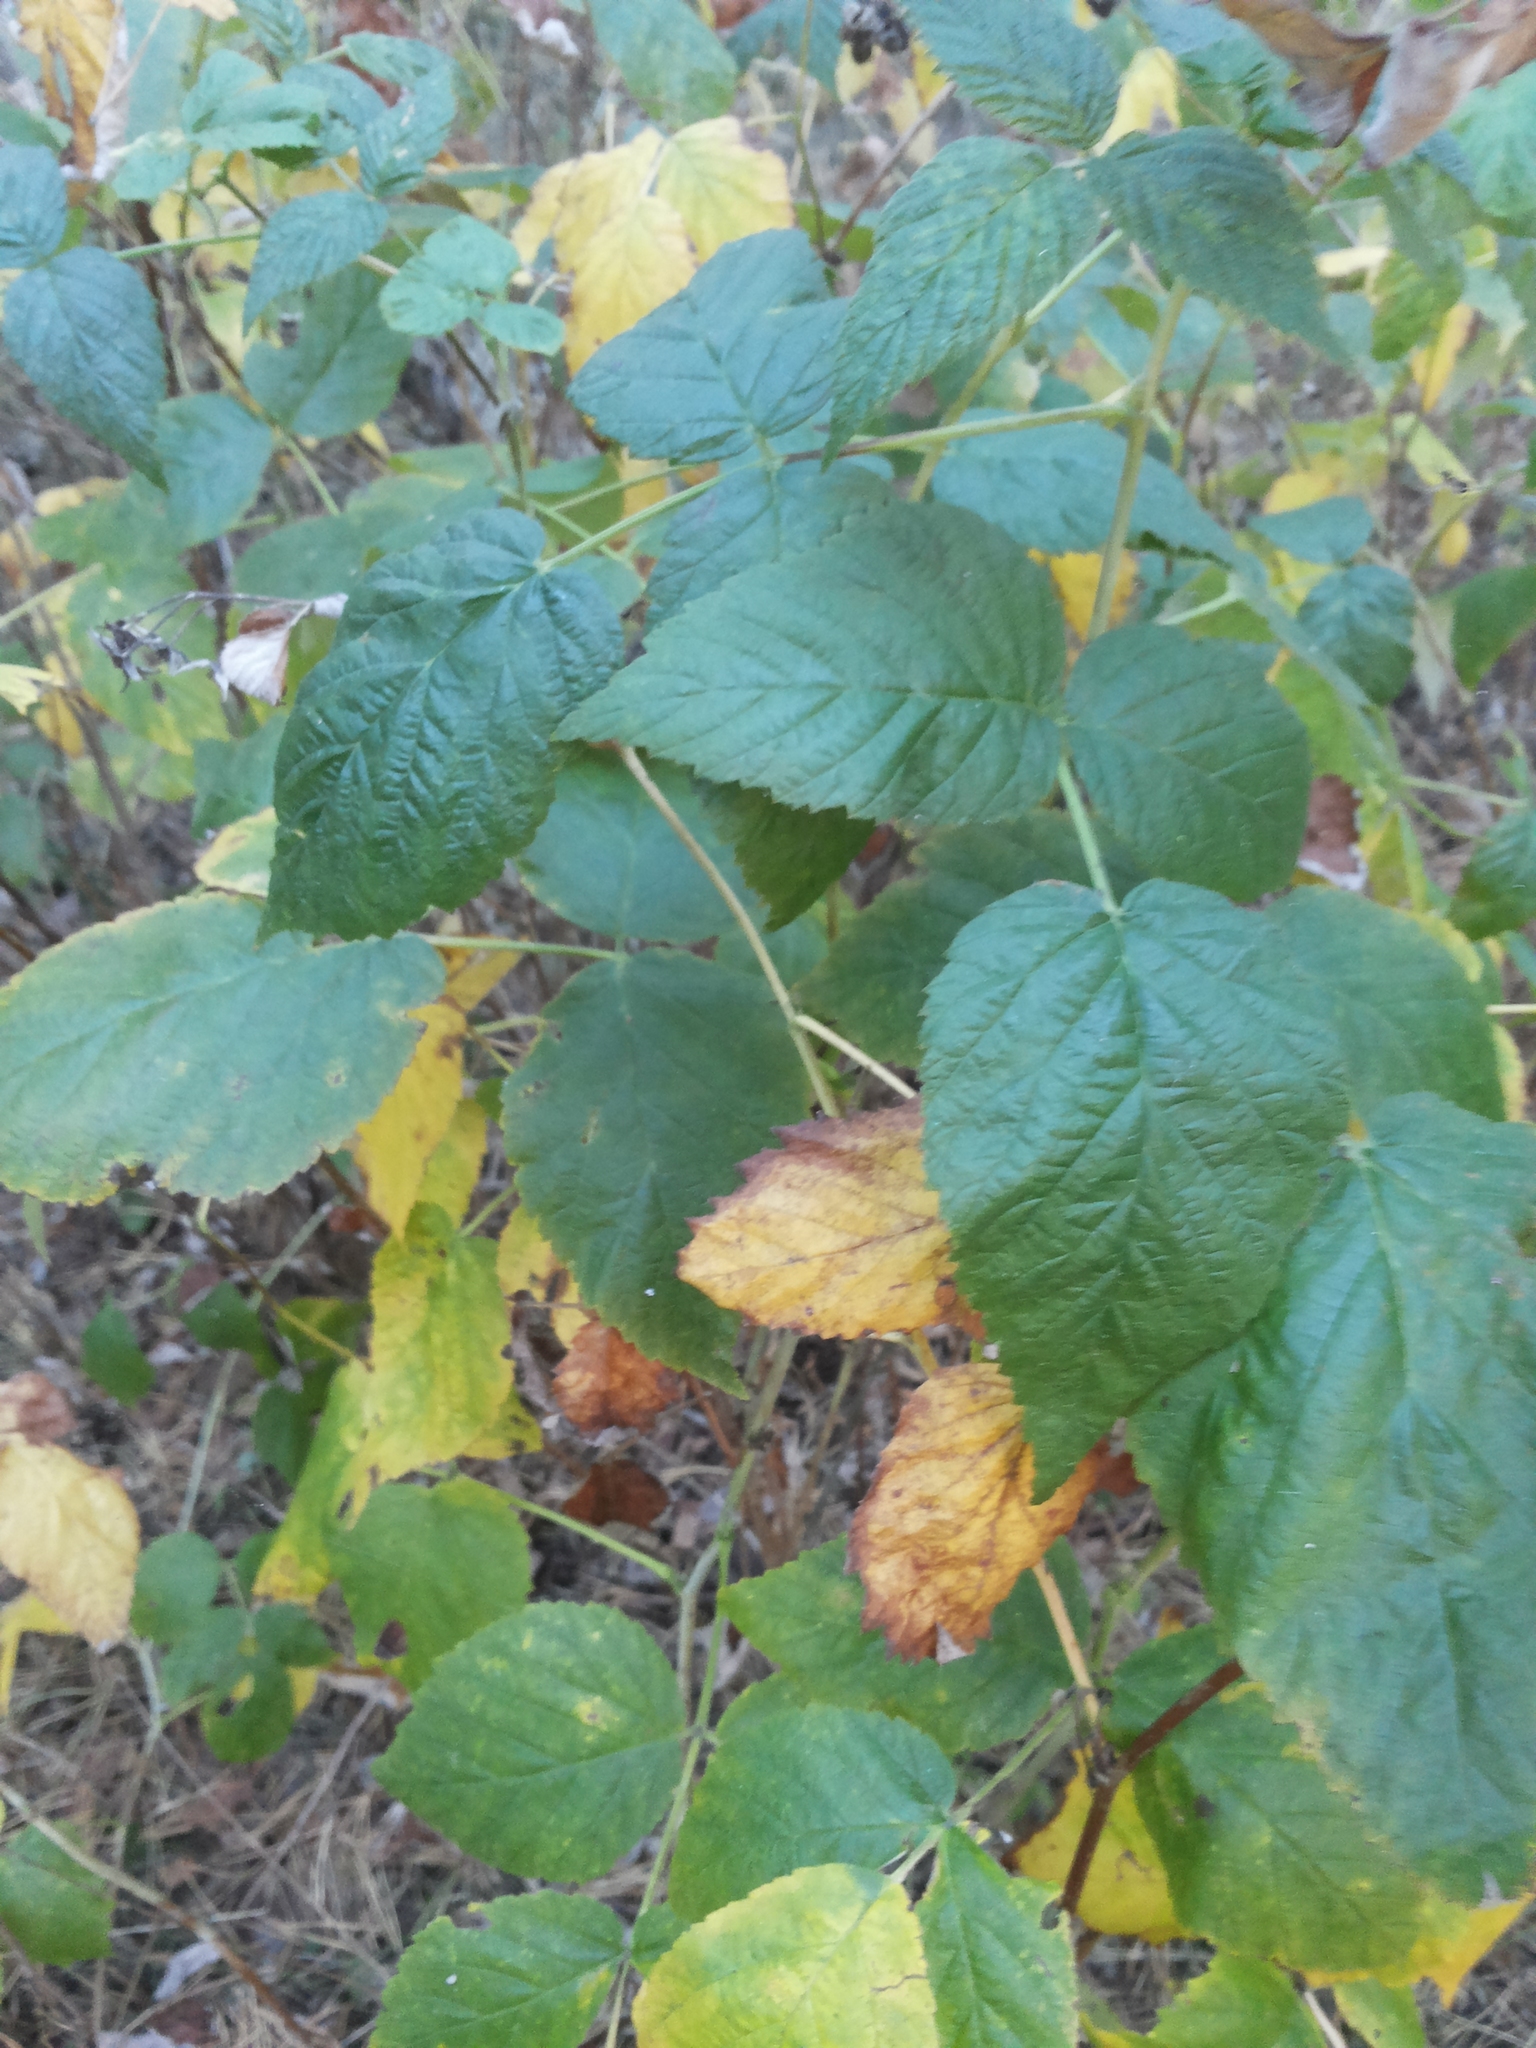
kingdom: Plantae
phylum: Tracheophyta
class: Magnoliopsida
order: Rosales
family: Rosaceae
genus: Rubus
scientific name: Rubus idaeus
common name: Raspberry
